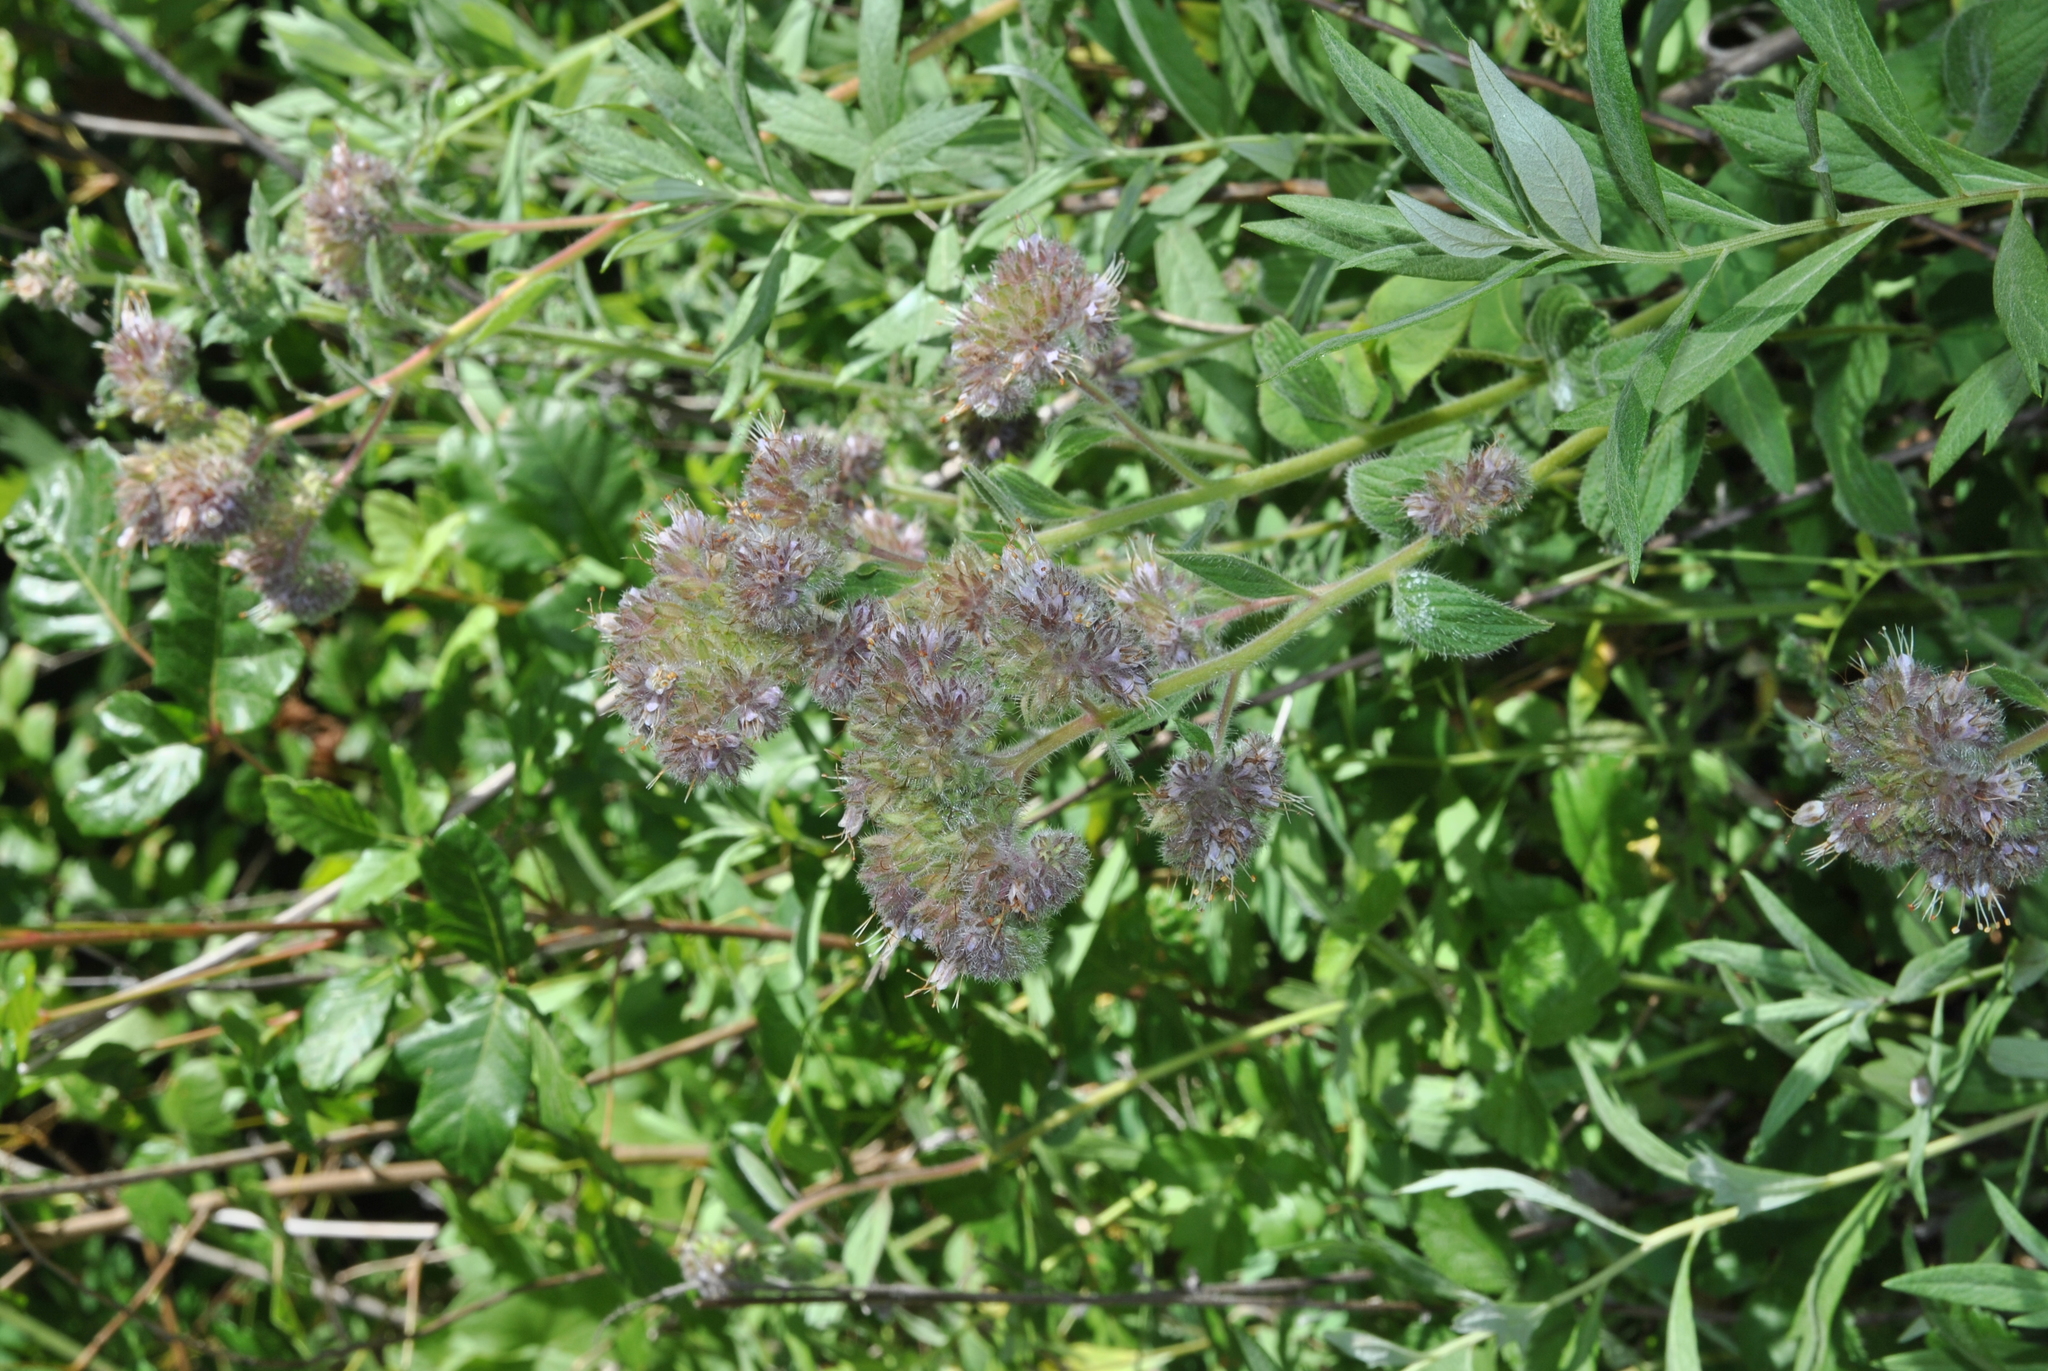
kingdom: Plantae
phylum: Tracheophyta
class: Magnoliopsida
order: Boraginales
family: Hydrophyllaceae
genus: Phacelia
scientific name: Phacelia californica
